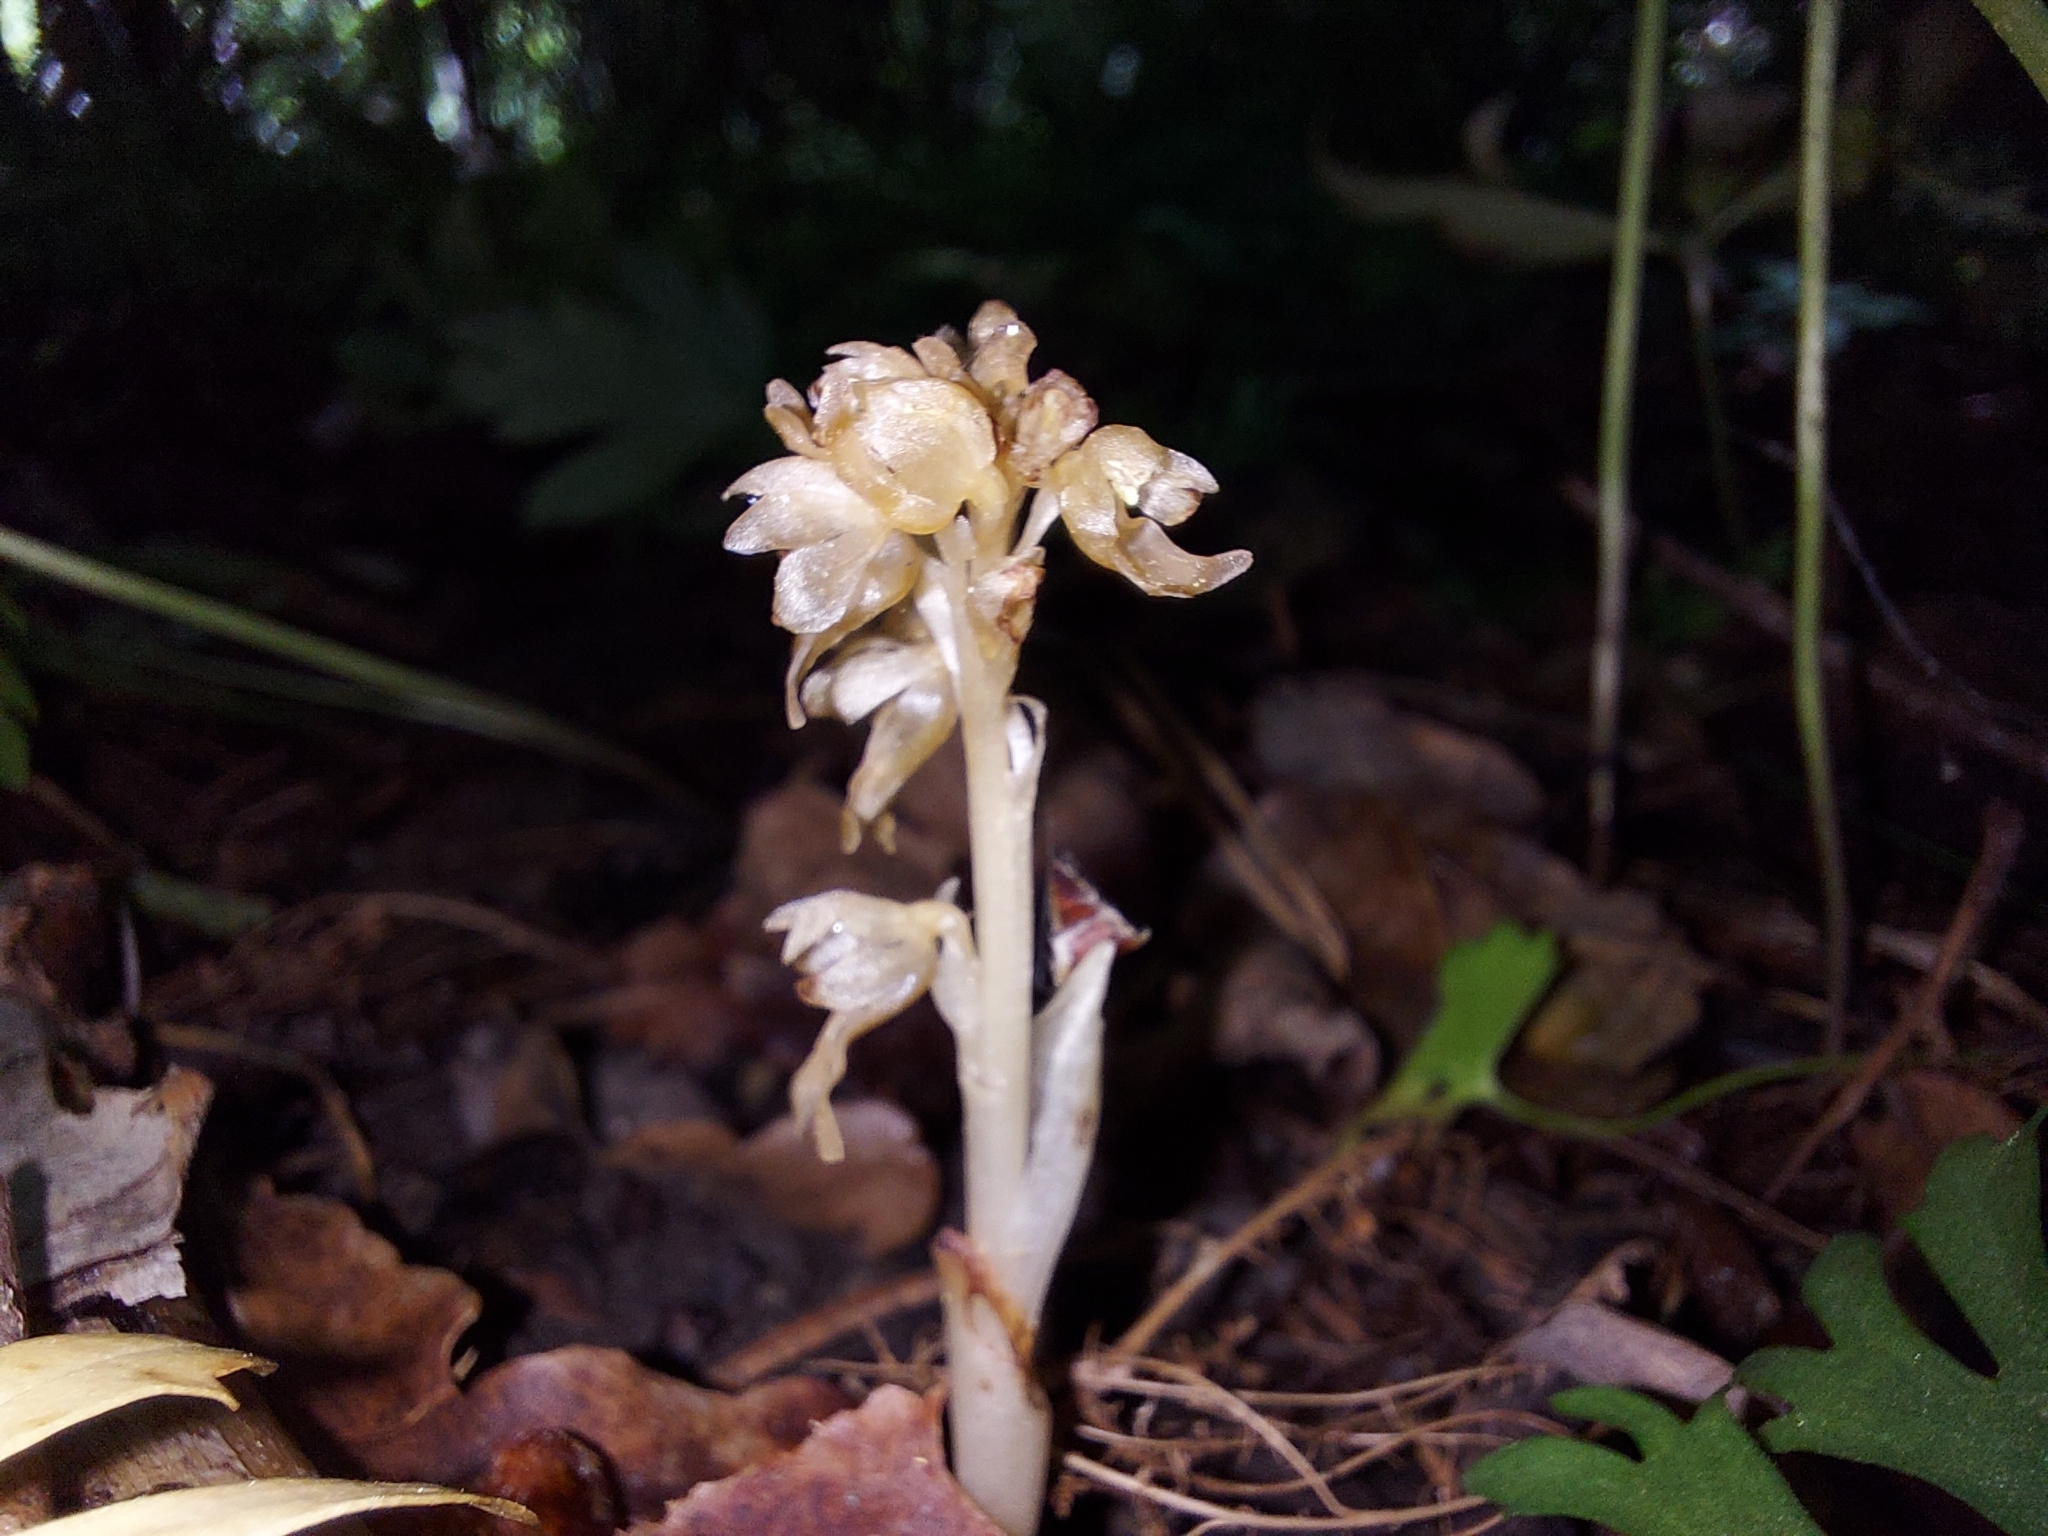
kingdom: Plantae
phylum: Tracheophyta
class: Liliopsida
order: Asparagales
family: Orchidaceae
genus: Neottia
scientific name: Neottia nidus-avis
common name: Bird's-nest orchid
